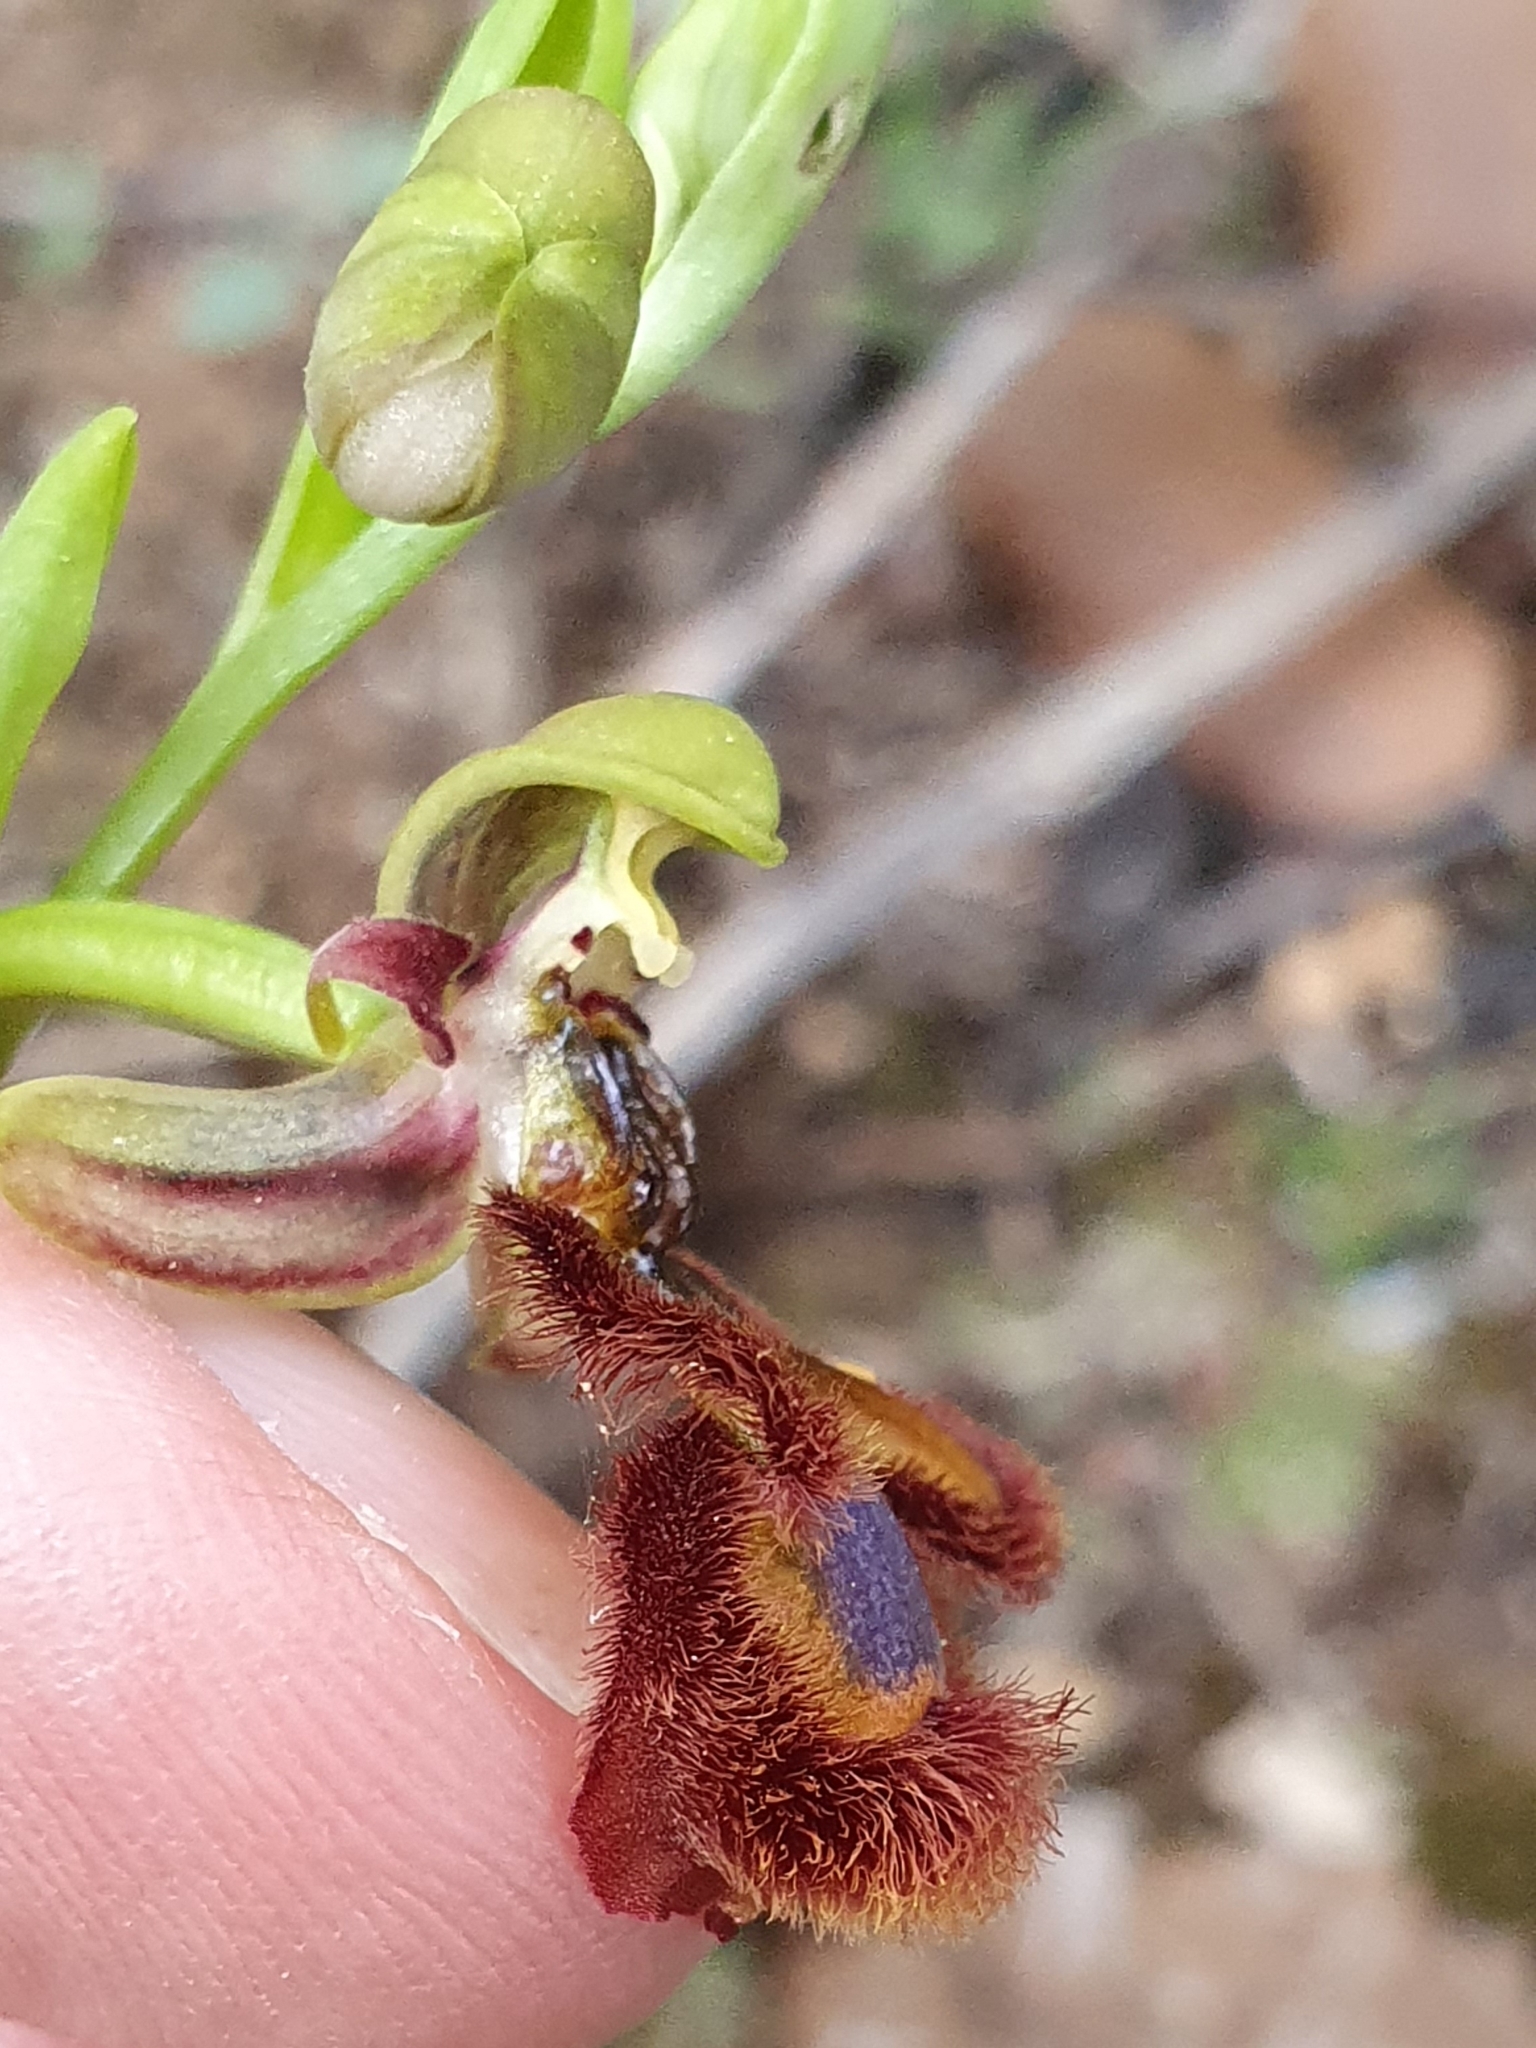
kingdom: Plantae
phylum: Tracheophyta
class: Liliopsida
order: Asparagales
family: Orchidaceae
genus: Ophrys
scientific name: Ophrys speculum
